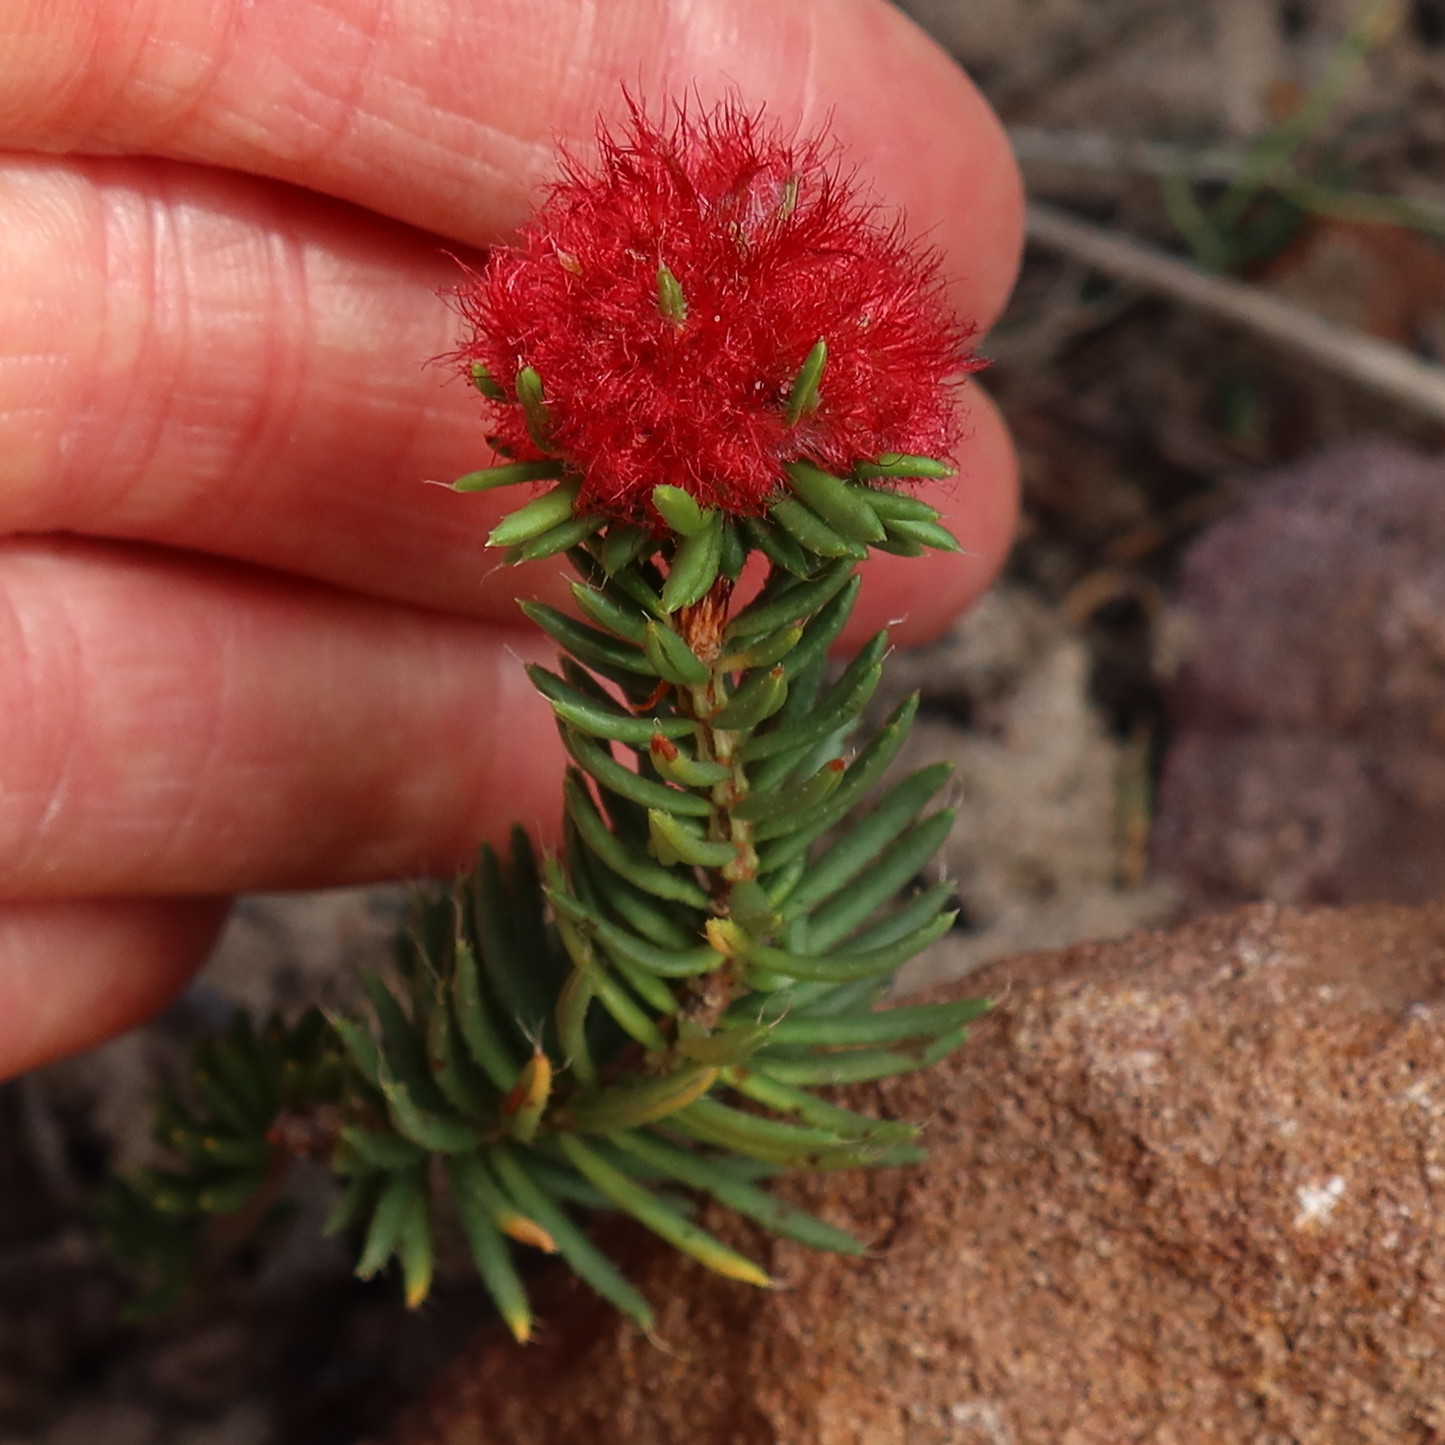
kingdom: Plantae
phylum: Tracheophyta
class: Magnoliopsida
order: Ericales
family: Ericaceae
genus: Erica
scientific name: Erica cerinthoides
